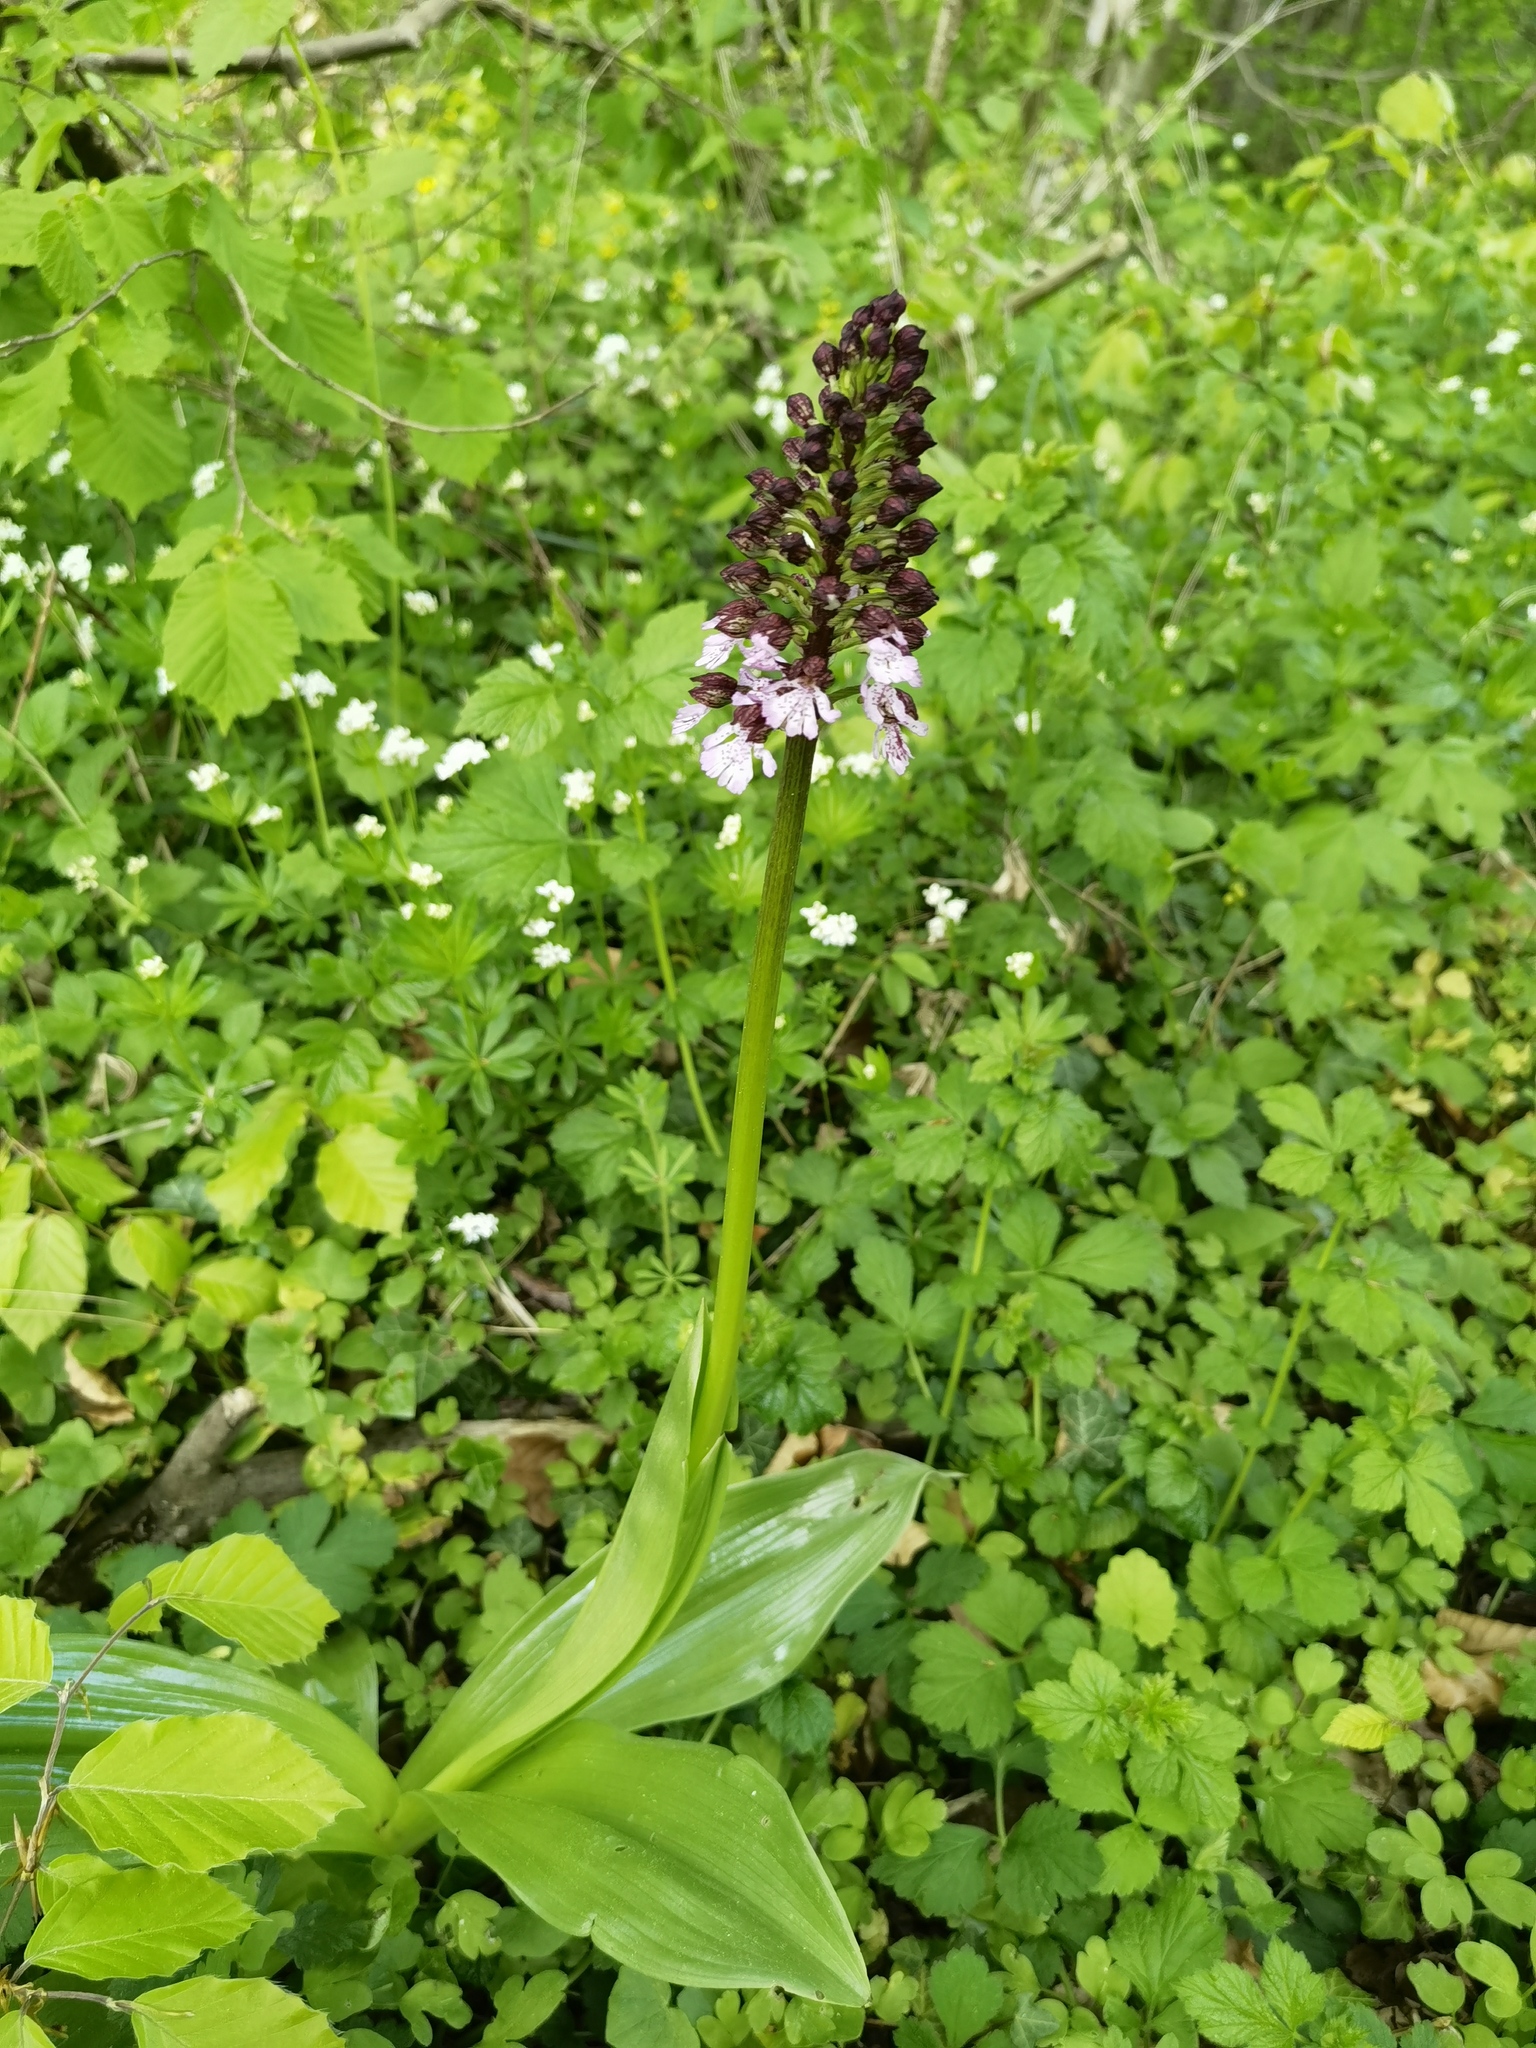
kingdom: Plantae
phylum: Tracheophyta
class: Liliopsida
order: Asparagales
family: Orchidaceae
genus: Orchis
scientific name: Orchis purpurea
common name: Lady orchid
